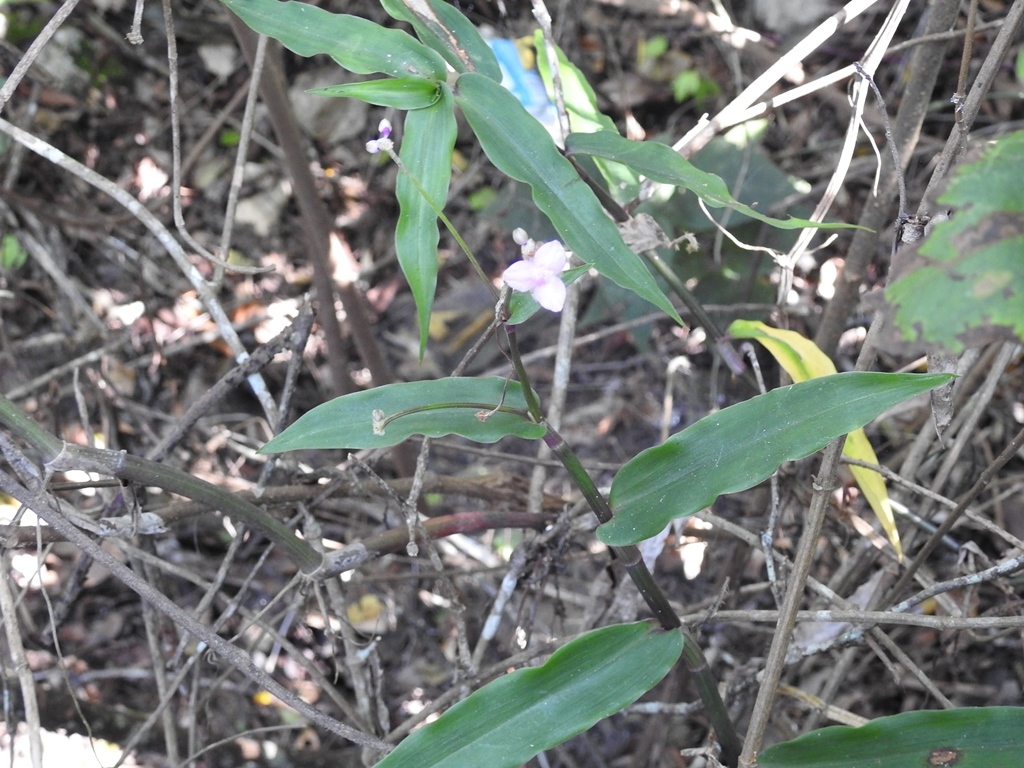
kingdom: Plantae
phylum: Tracheophyta
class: Liliopsida
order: Commelinales
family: Commelinaceae
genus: Callisia
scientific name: Callisia serrulata
